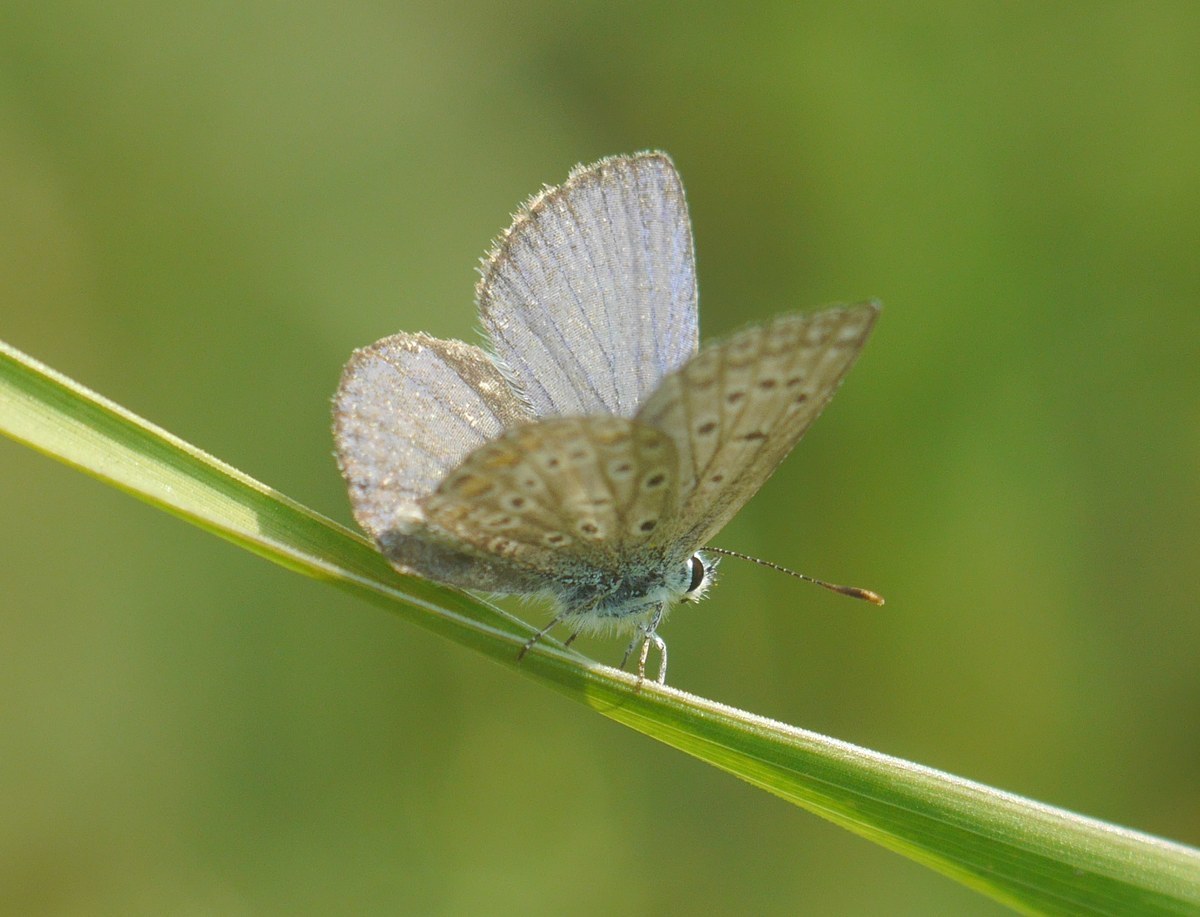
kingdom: Animalia
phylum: Arthropoda
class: Insecta
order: Lepidoptera
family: Lycaenidae
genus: Polyommatus
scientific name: Polyommatus icarus
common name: Common blue
